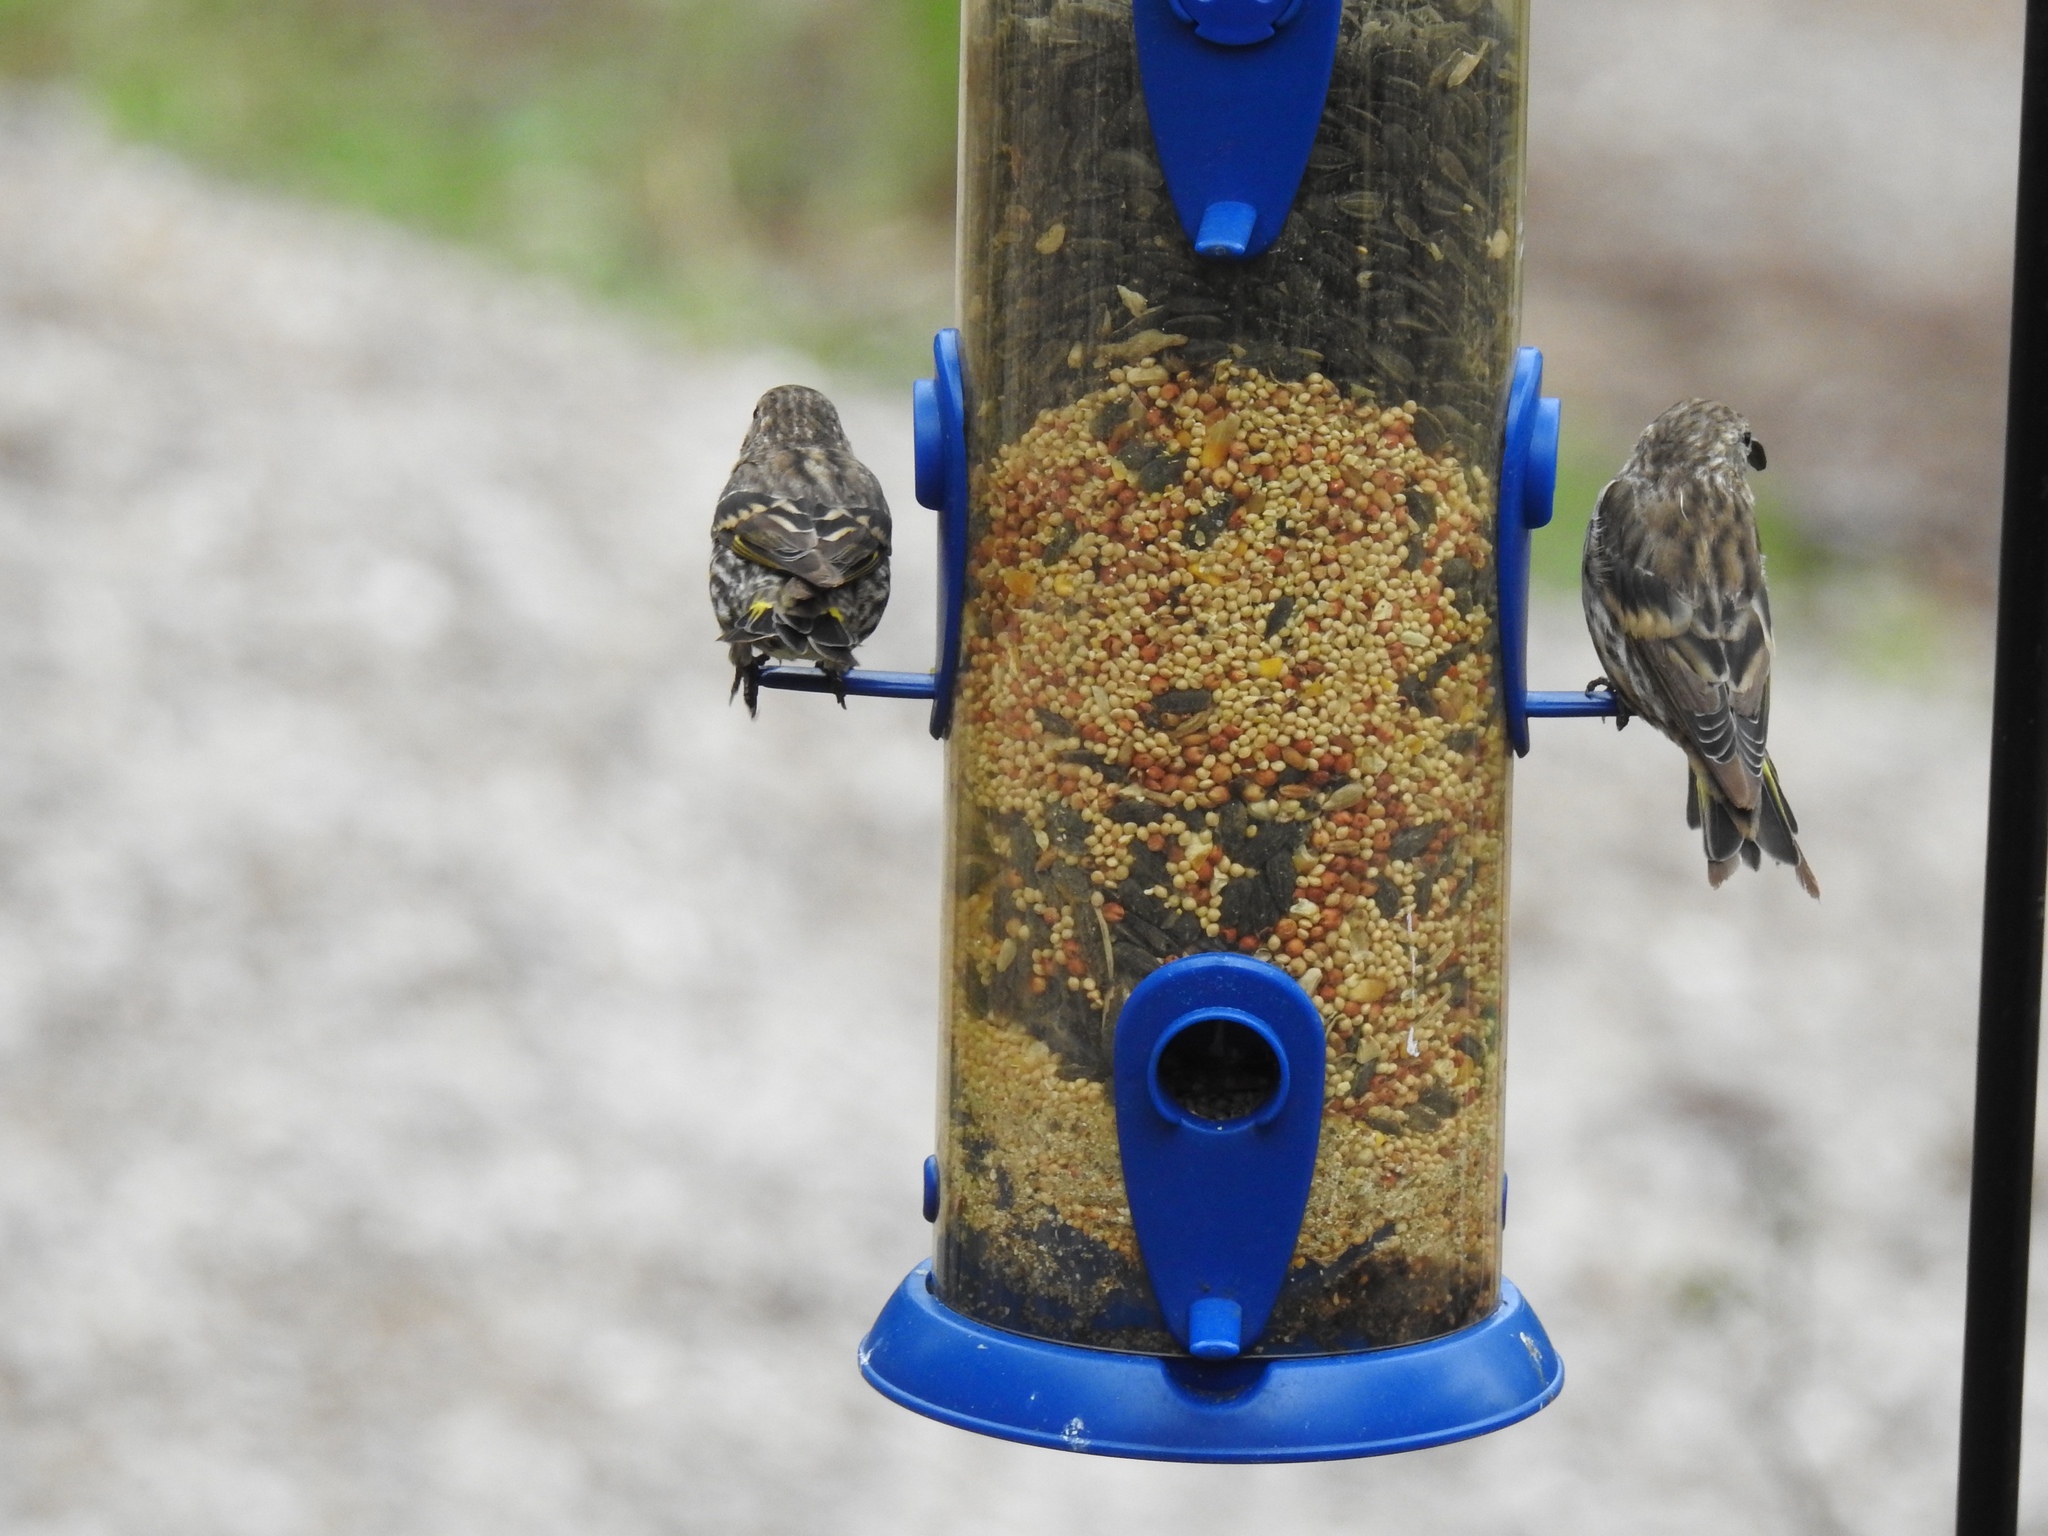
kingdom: Animalia
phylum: Chordata
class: Aves
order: Passeriformes
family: Fringillidae
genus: Spinus
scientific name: Spinus pinus
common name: Pine siskin
